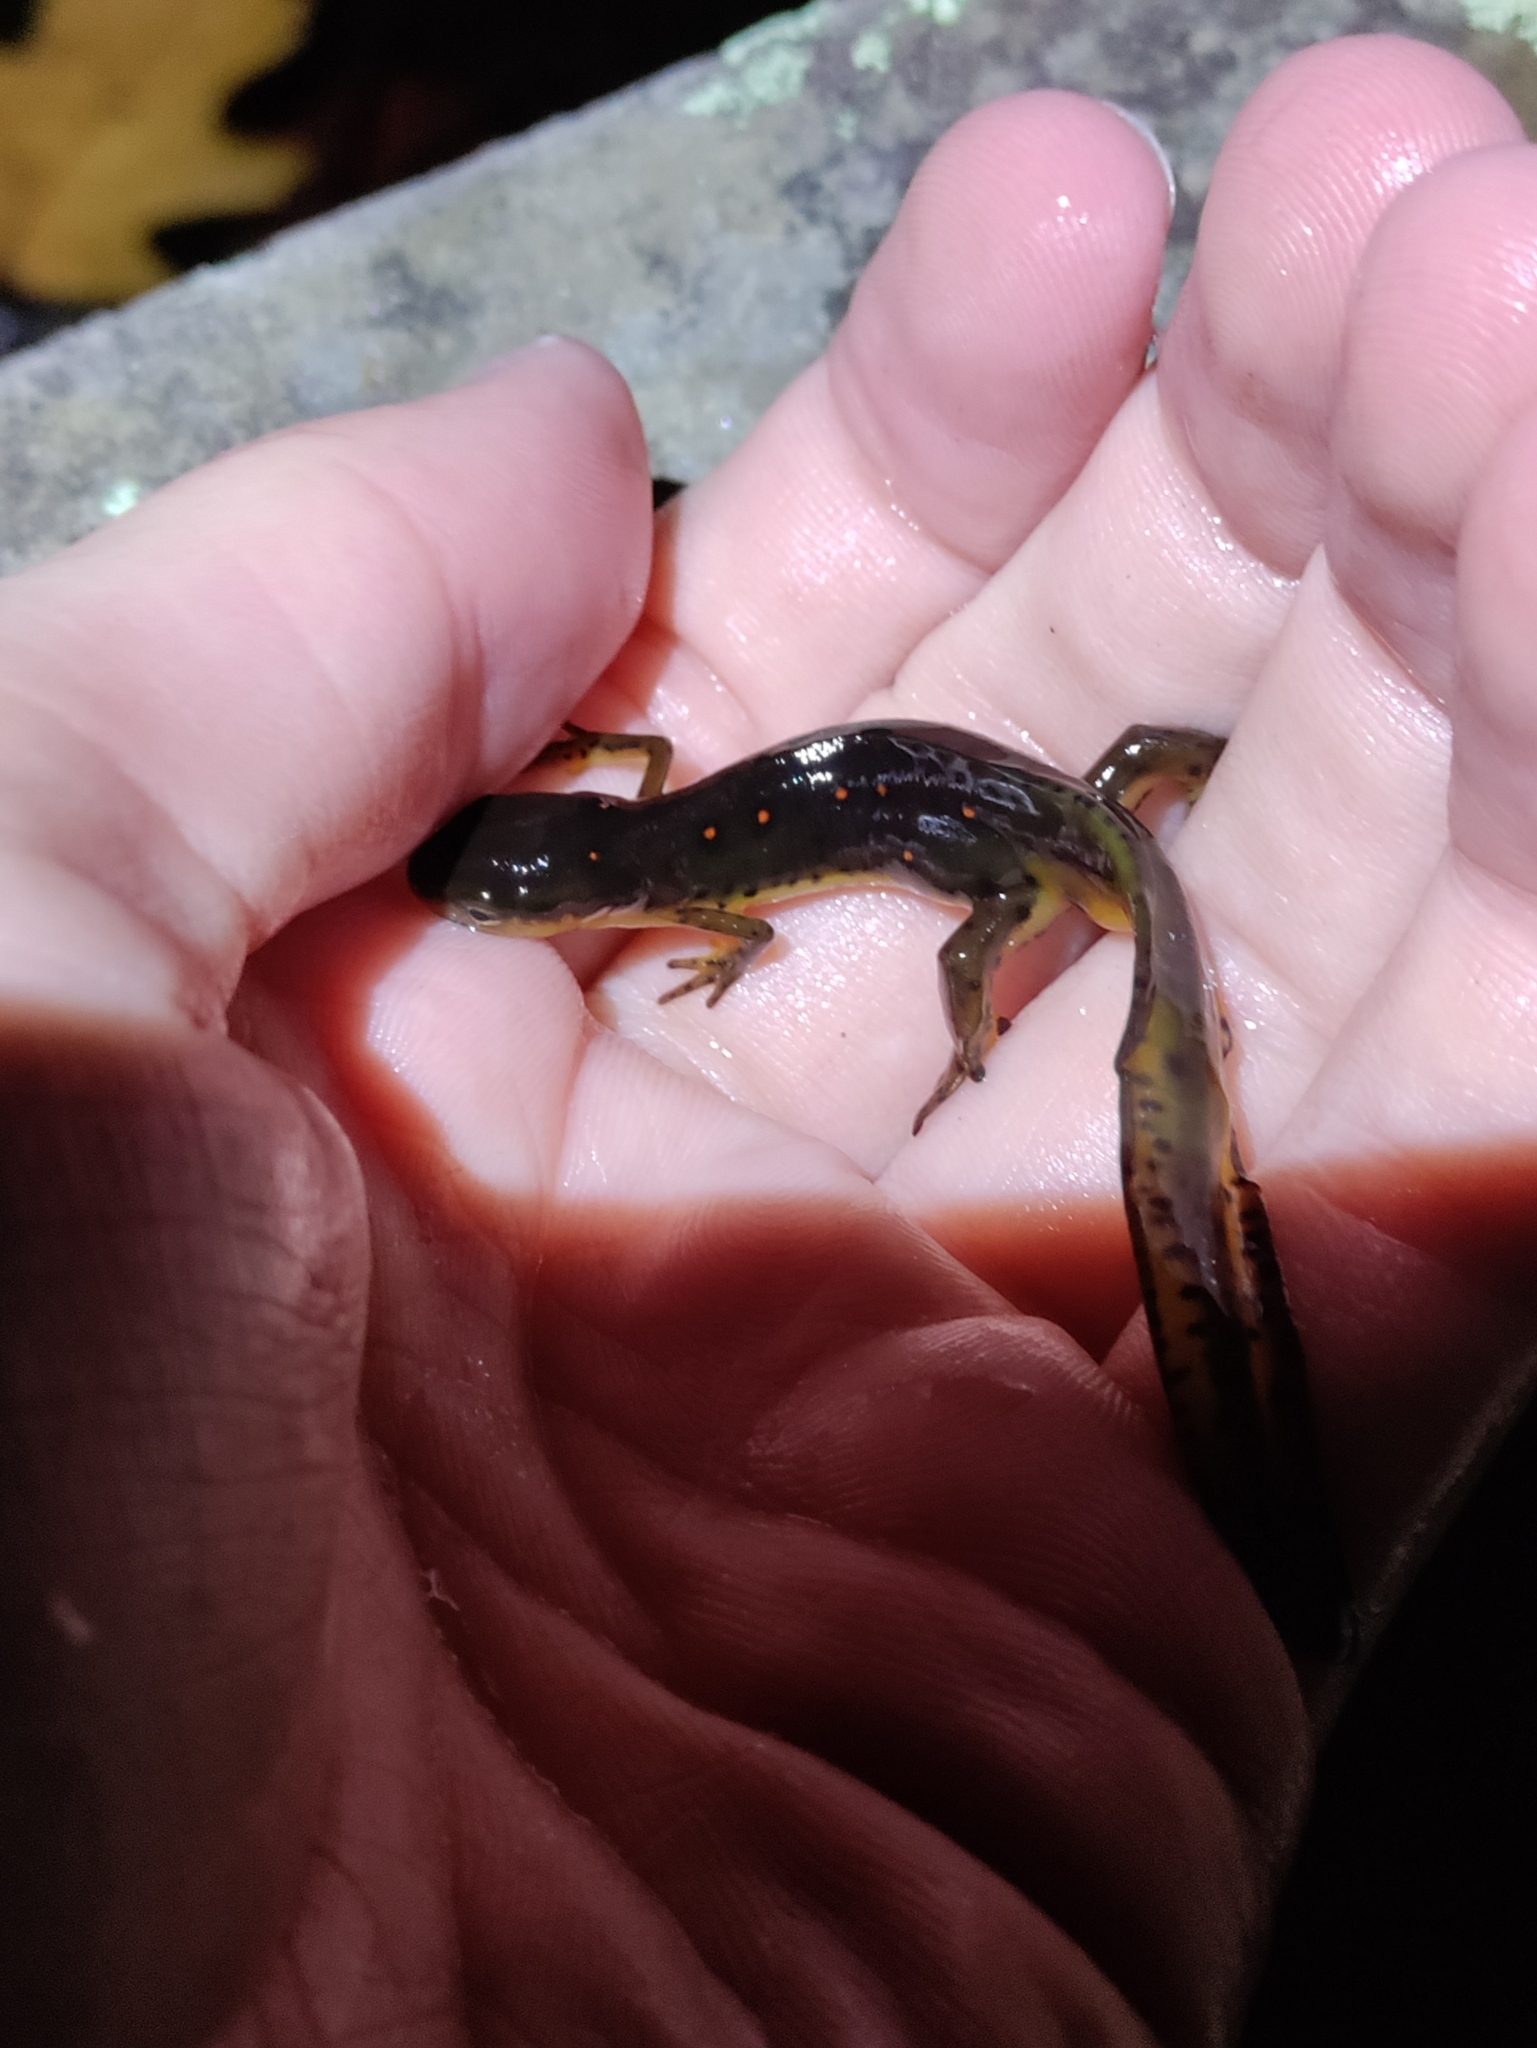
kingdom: Animalia
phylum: Chordata
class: Amphibia
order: Caudata
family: Salamandridae
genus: Notophthalmus
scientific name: Notophthalmus viridescens
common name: Eastern newt
